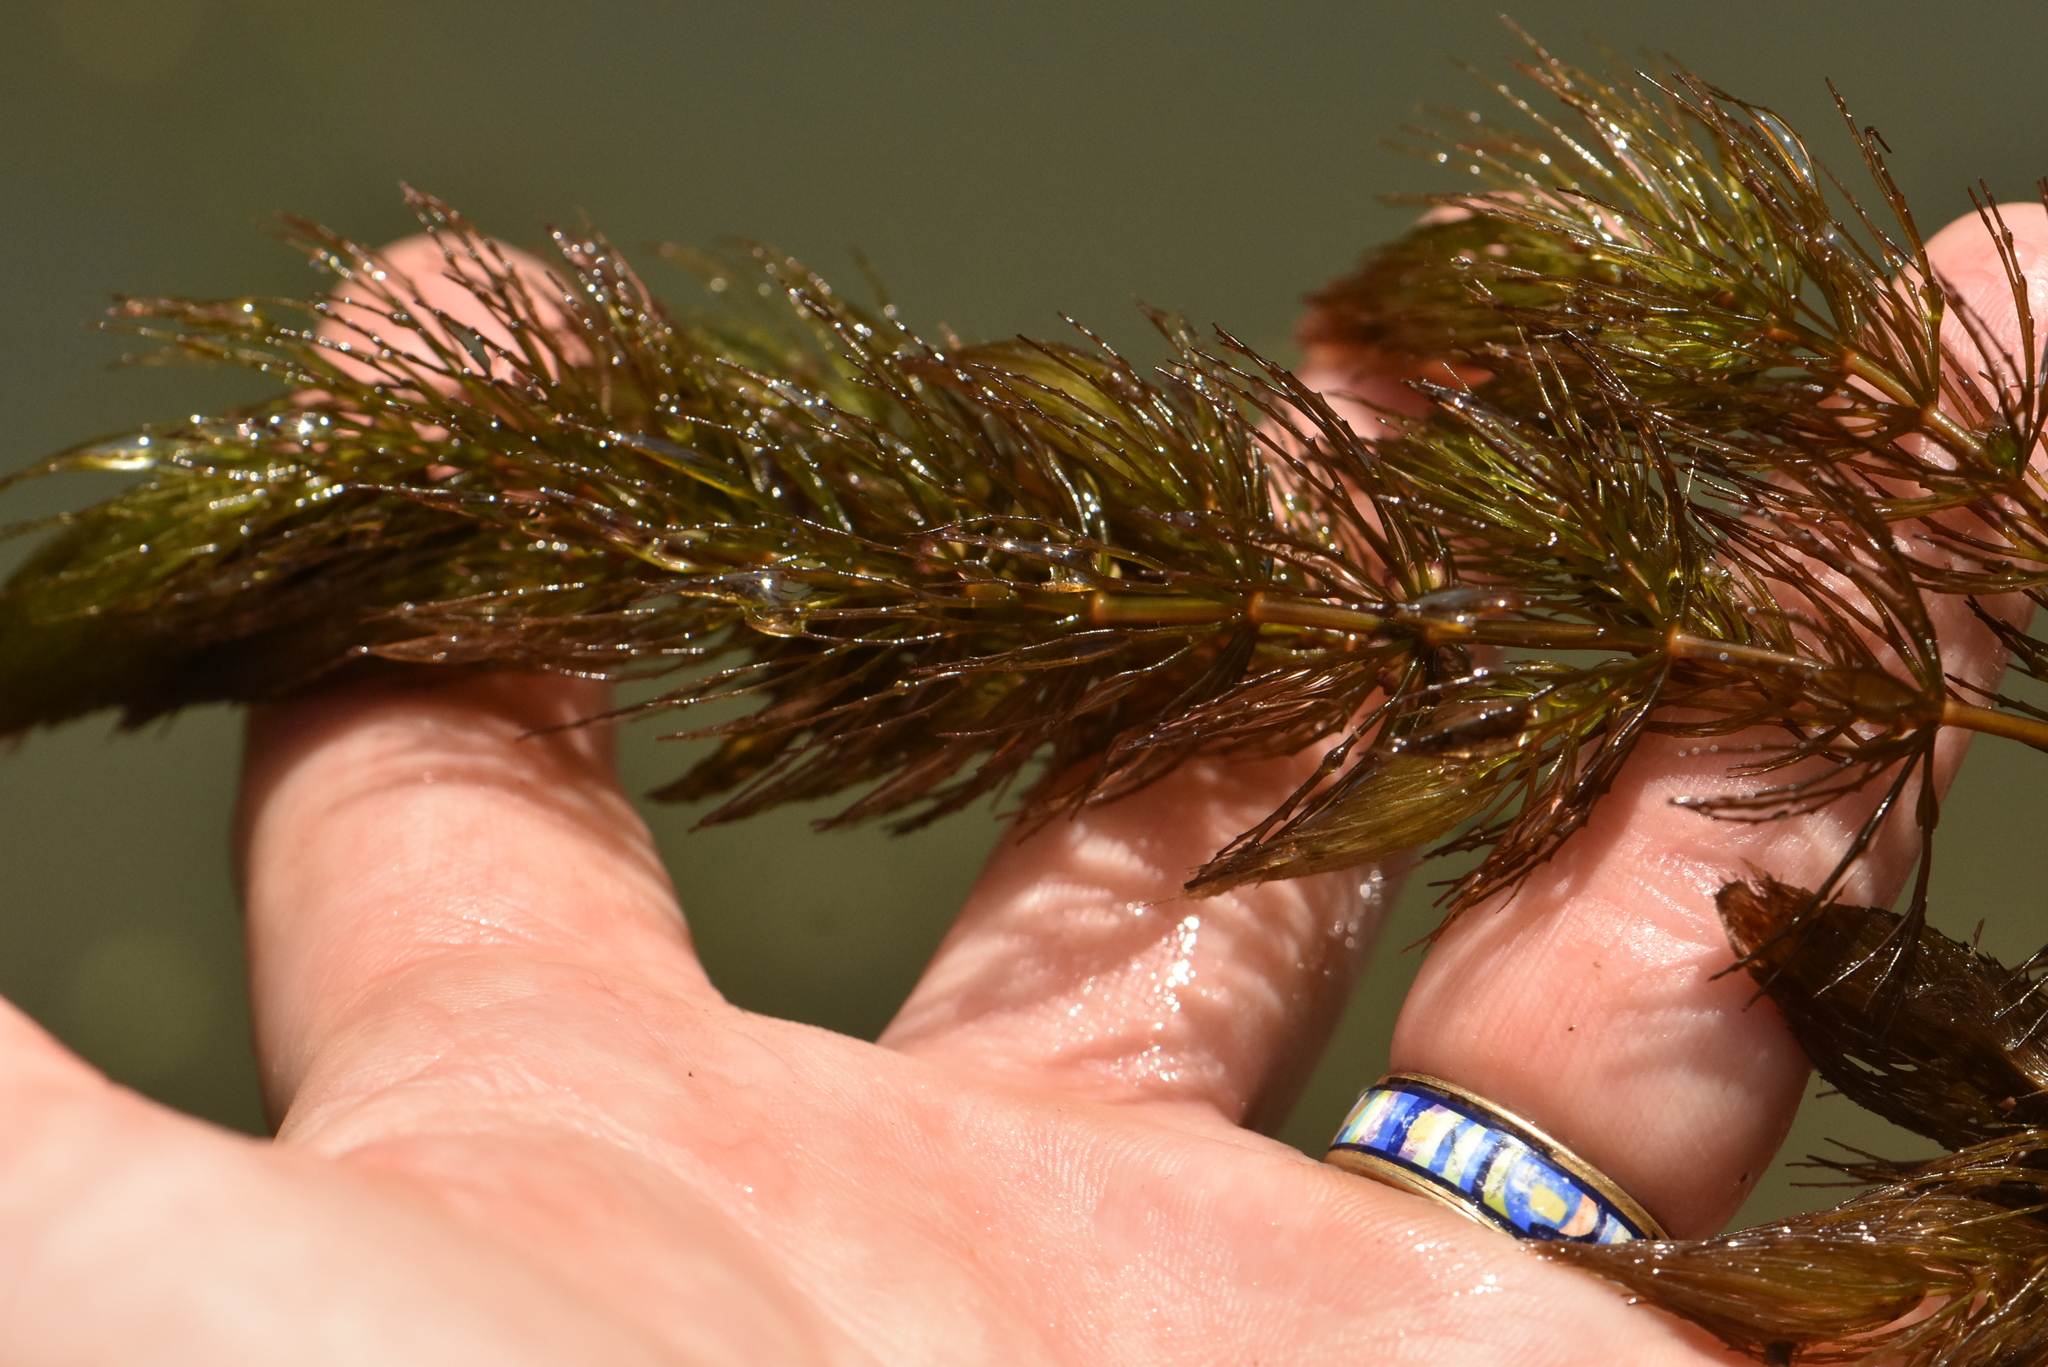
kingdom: Plantae
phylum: Tracheophyta
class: Magnoliopsida
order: Ceratophyllales
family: Ceratophyllaceae
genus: Ceratophyllum
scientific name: Ceratophyllum demersum
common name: Rigid hornwort
